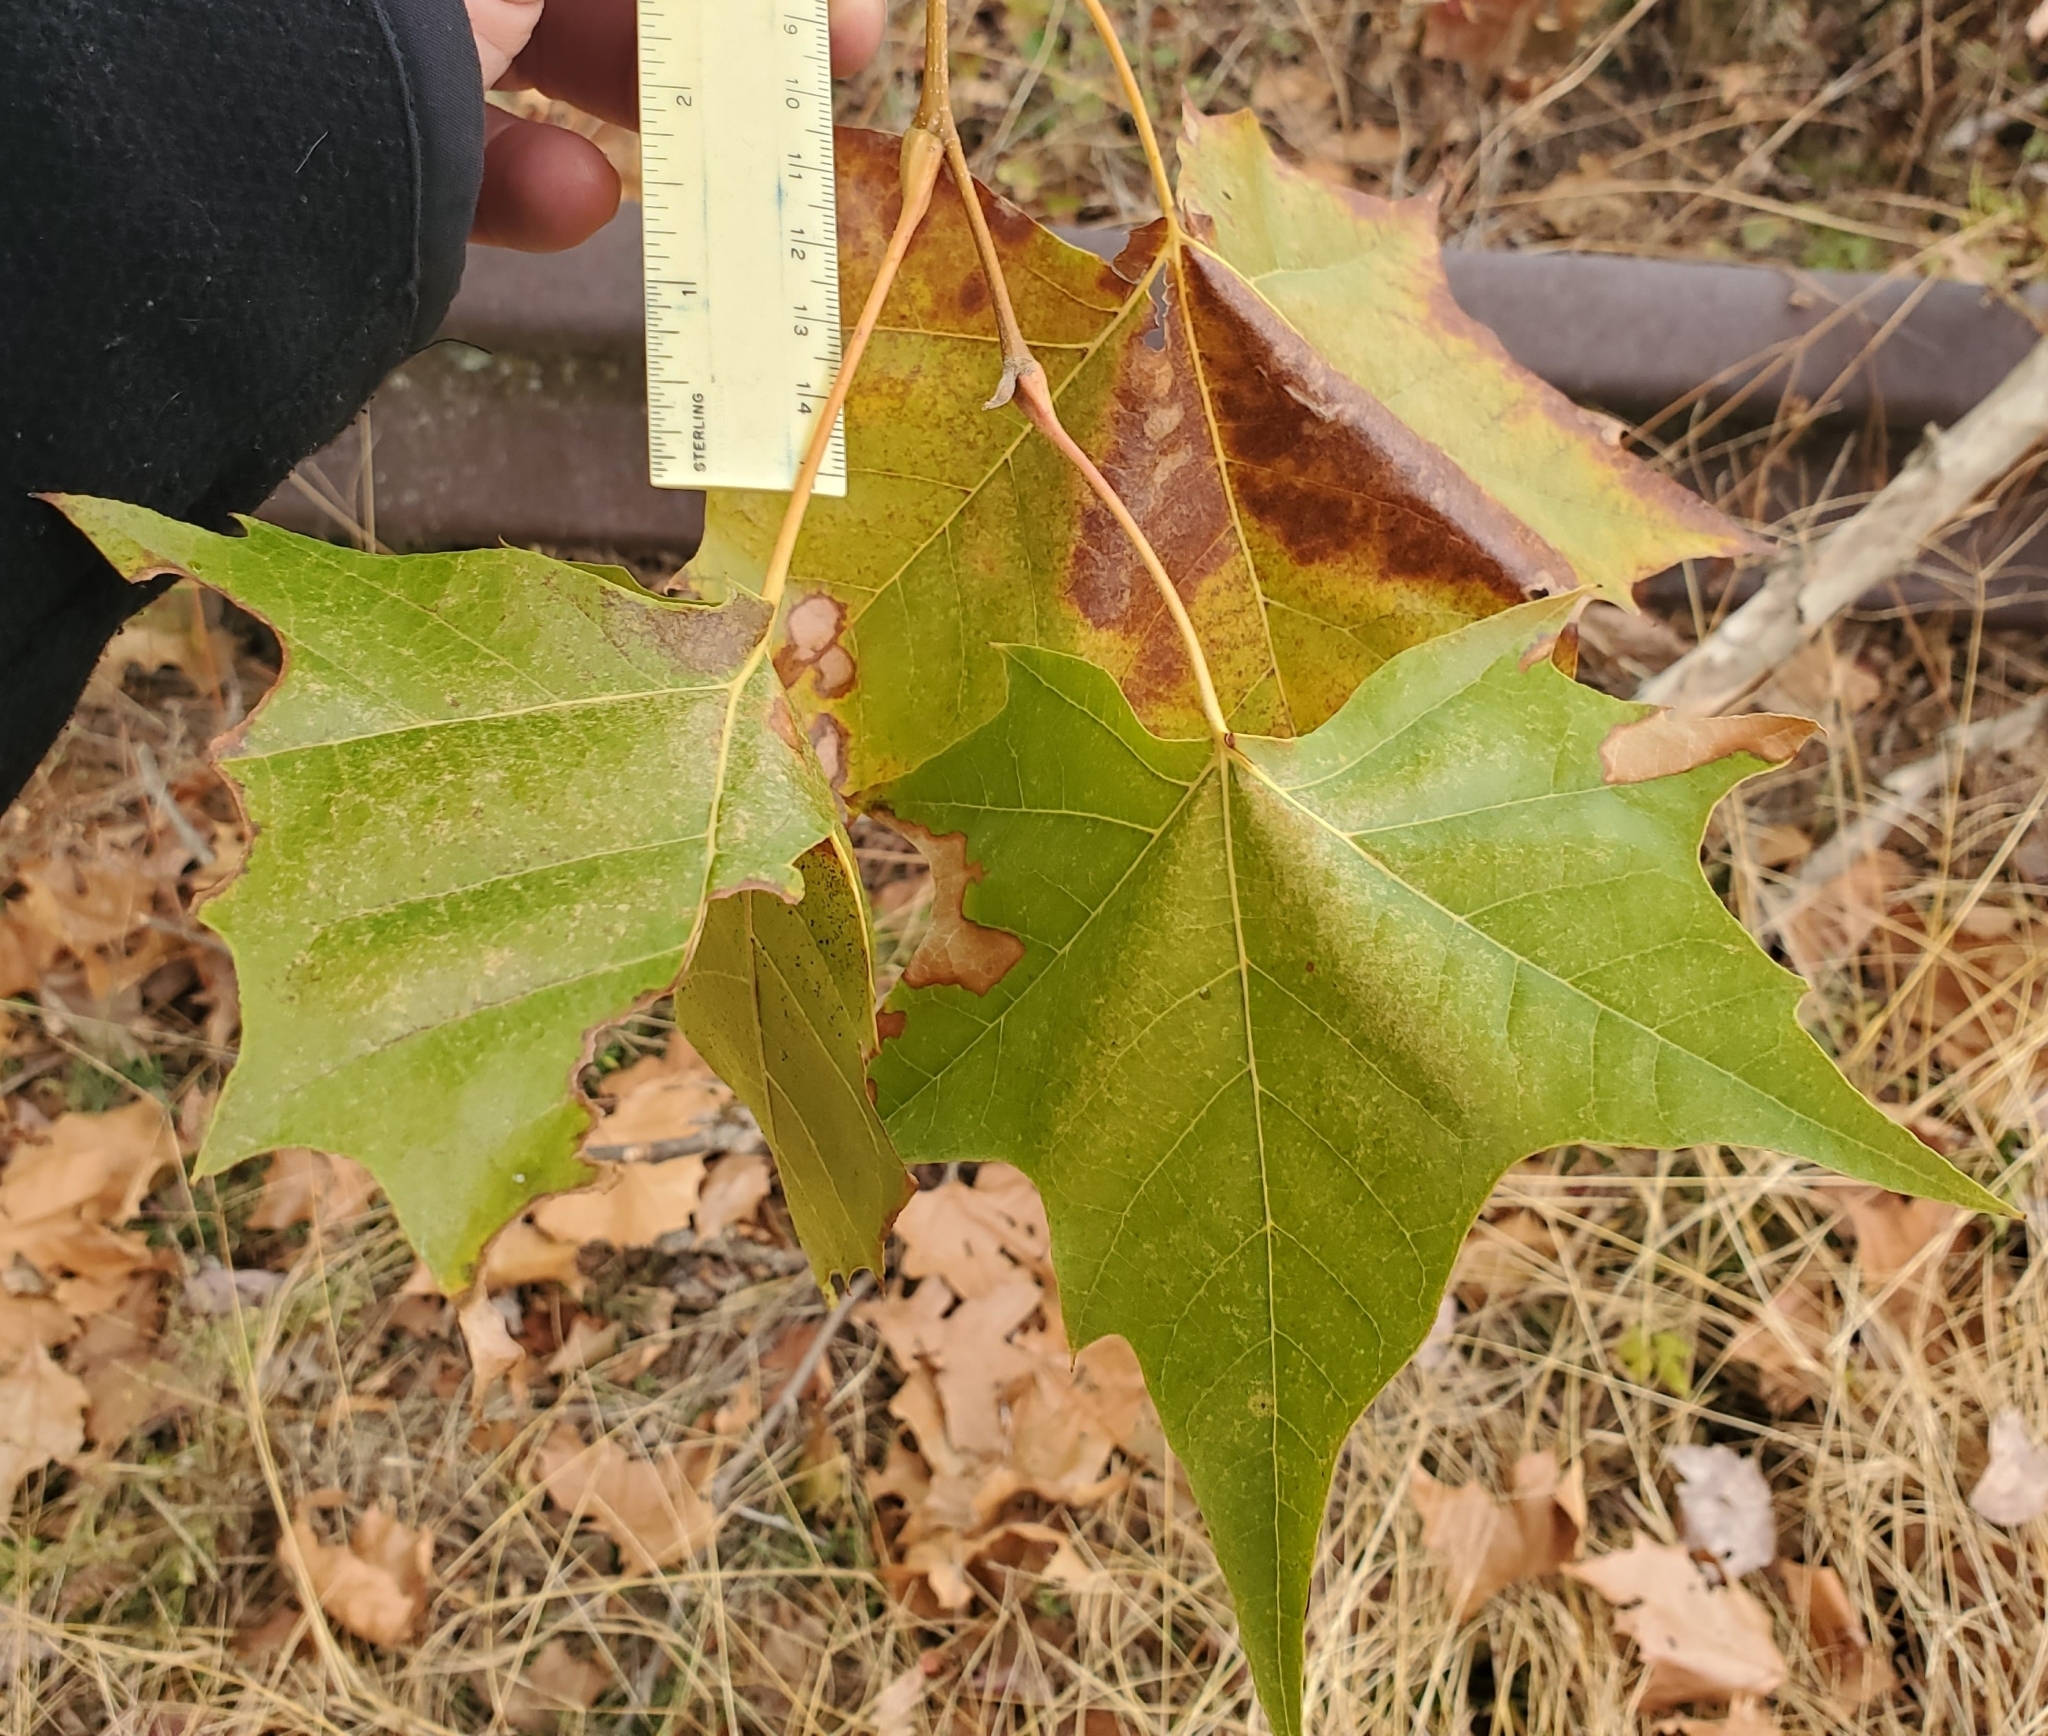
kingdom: Plantae
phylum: Tracheophyta
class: Magnoliopsida
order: Proteales
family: Platanaceae
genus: Platanus
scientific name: Platanus occidentalis
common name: American sycamore
